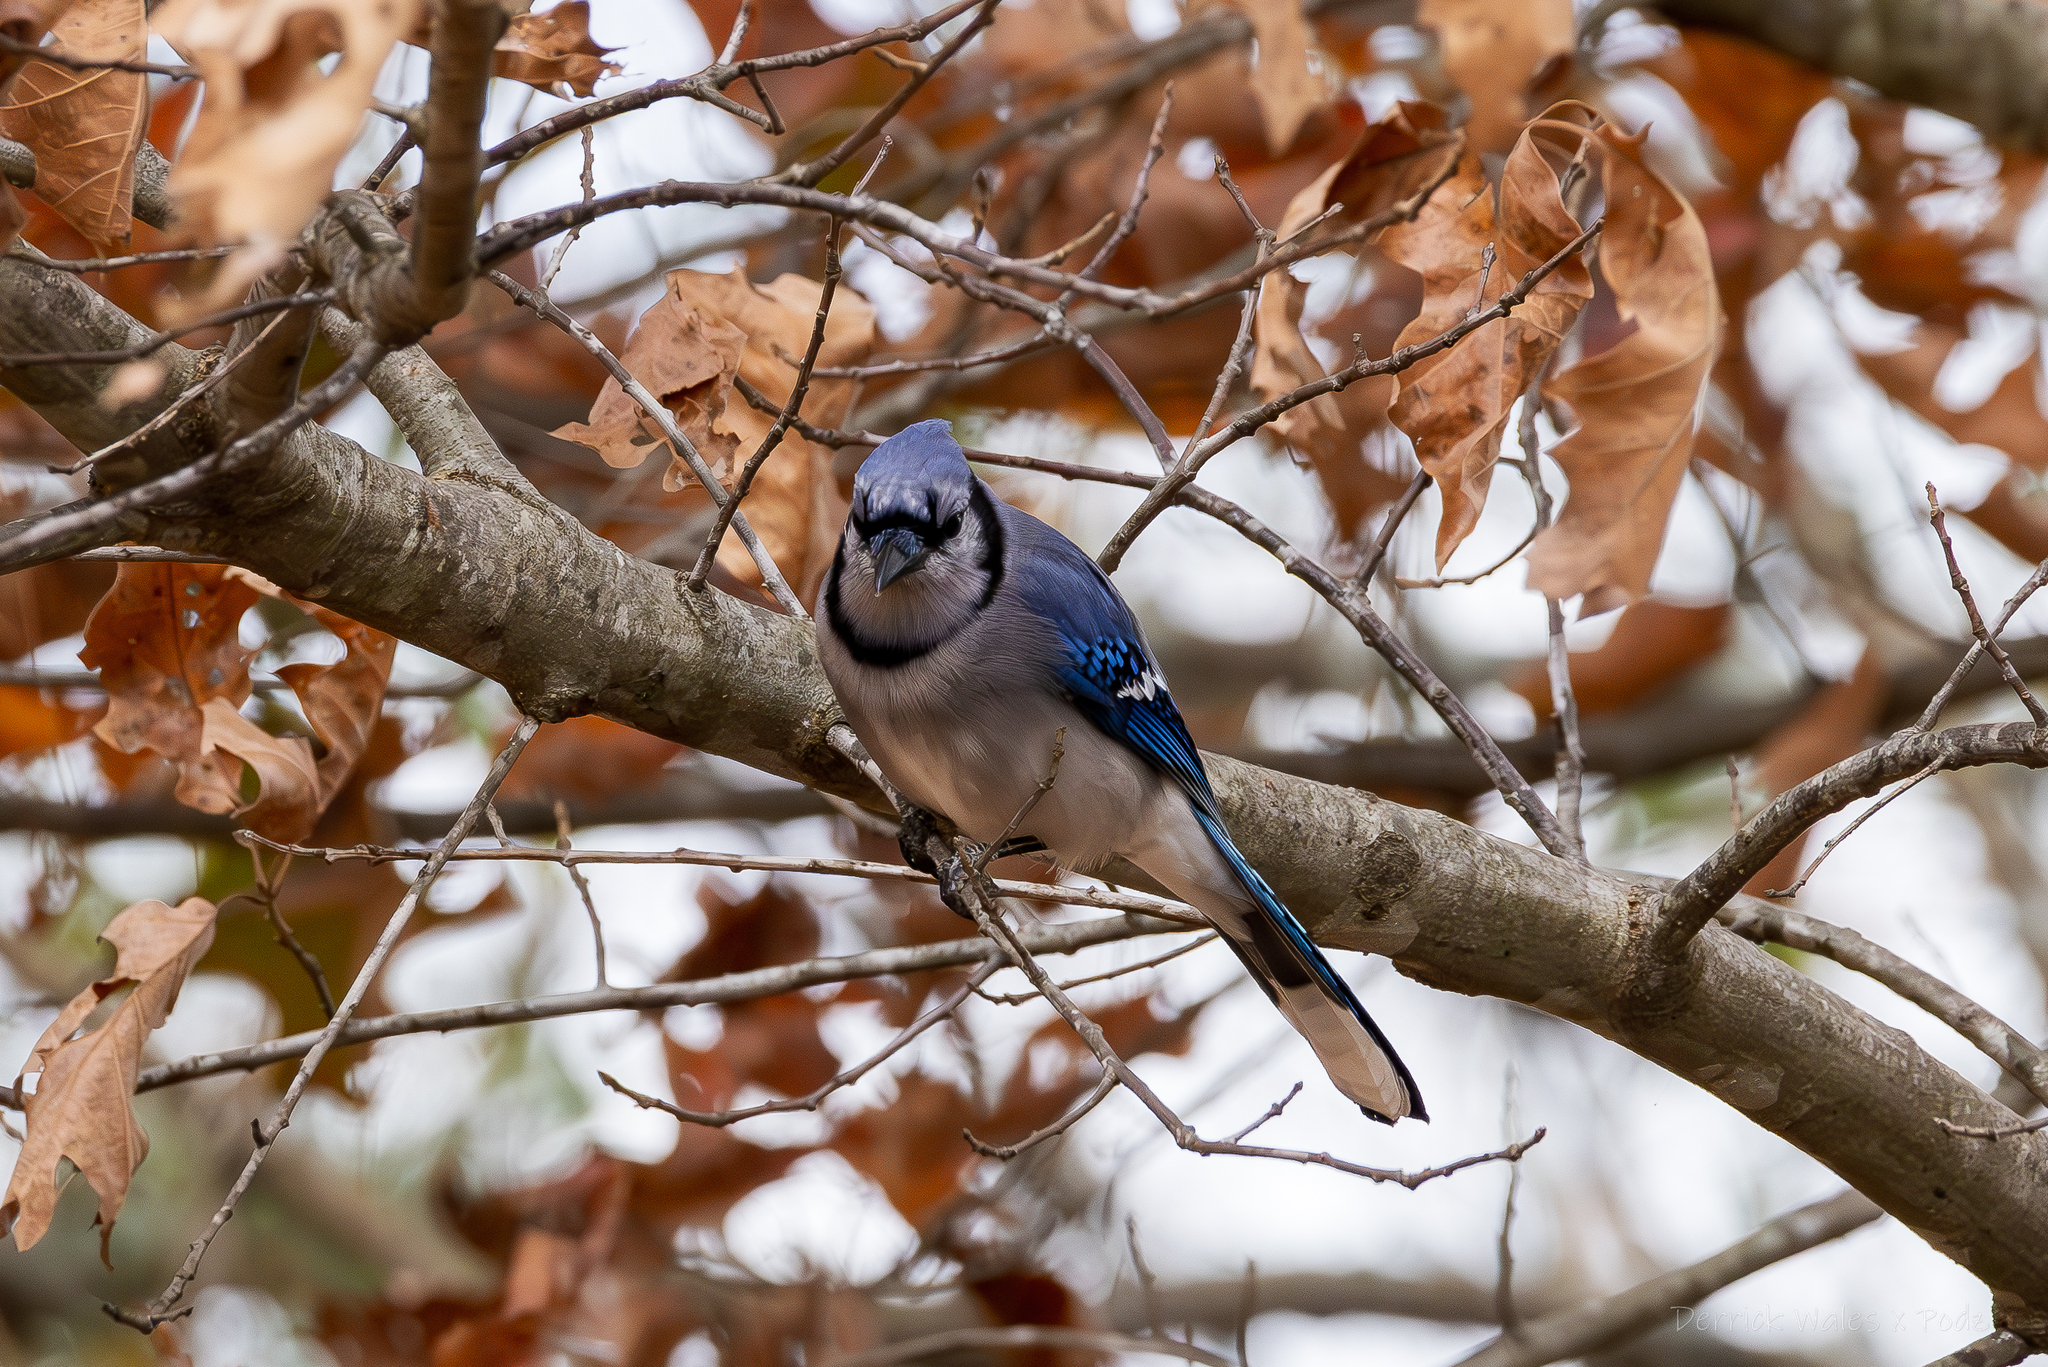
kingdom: Animalia
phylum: Chordata
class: Aves
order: Passeriformes
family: Corvidae
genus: Cyanocitta
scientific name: Cyanocitta cristata
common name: Blue jay
